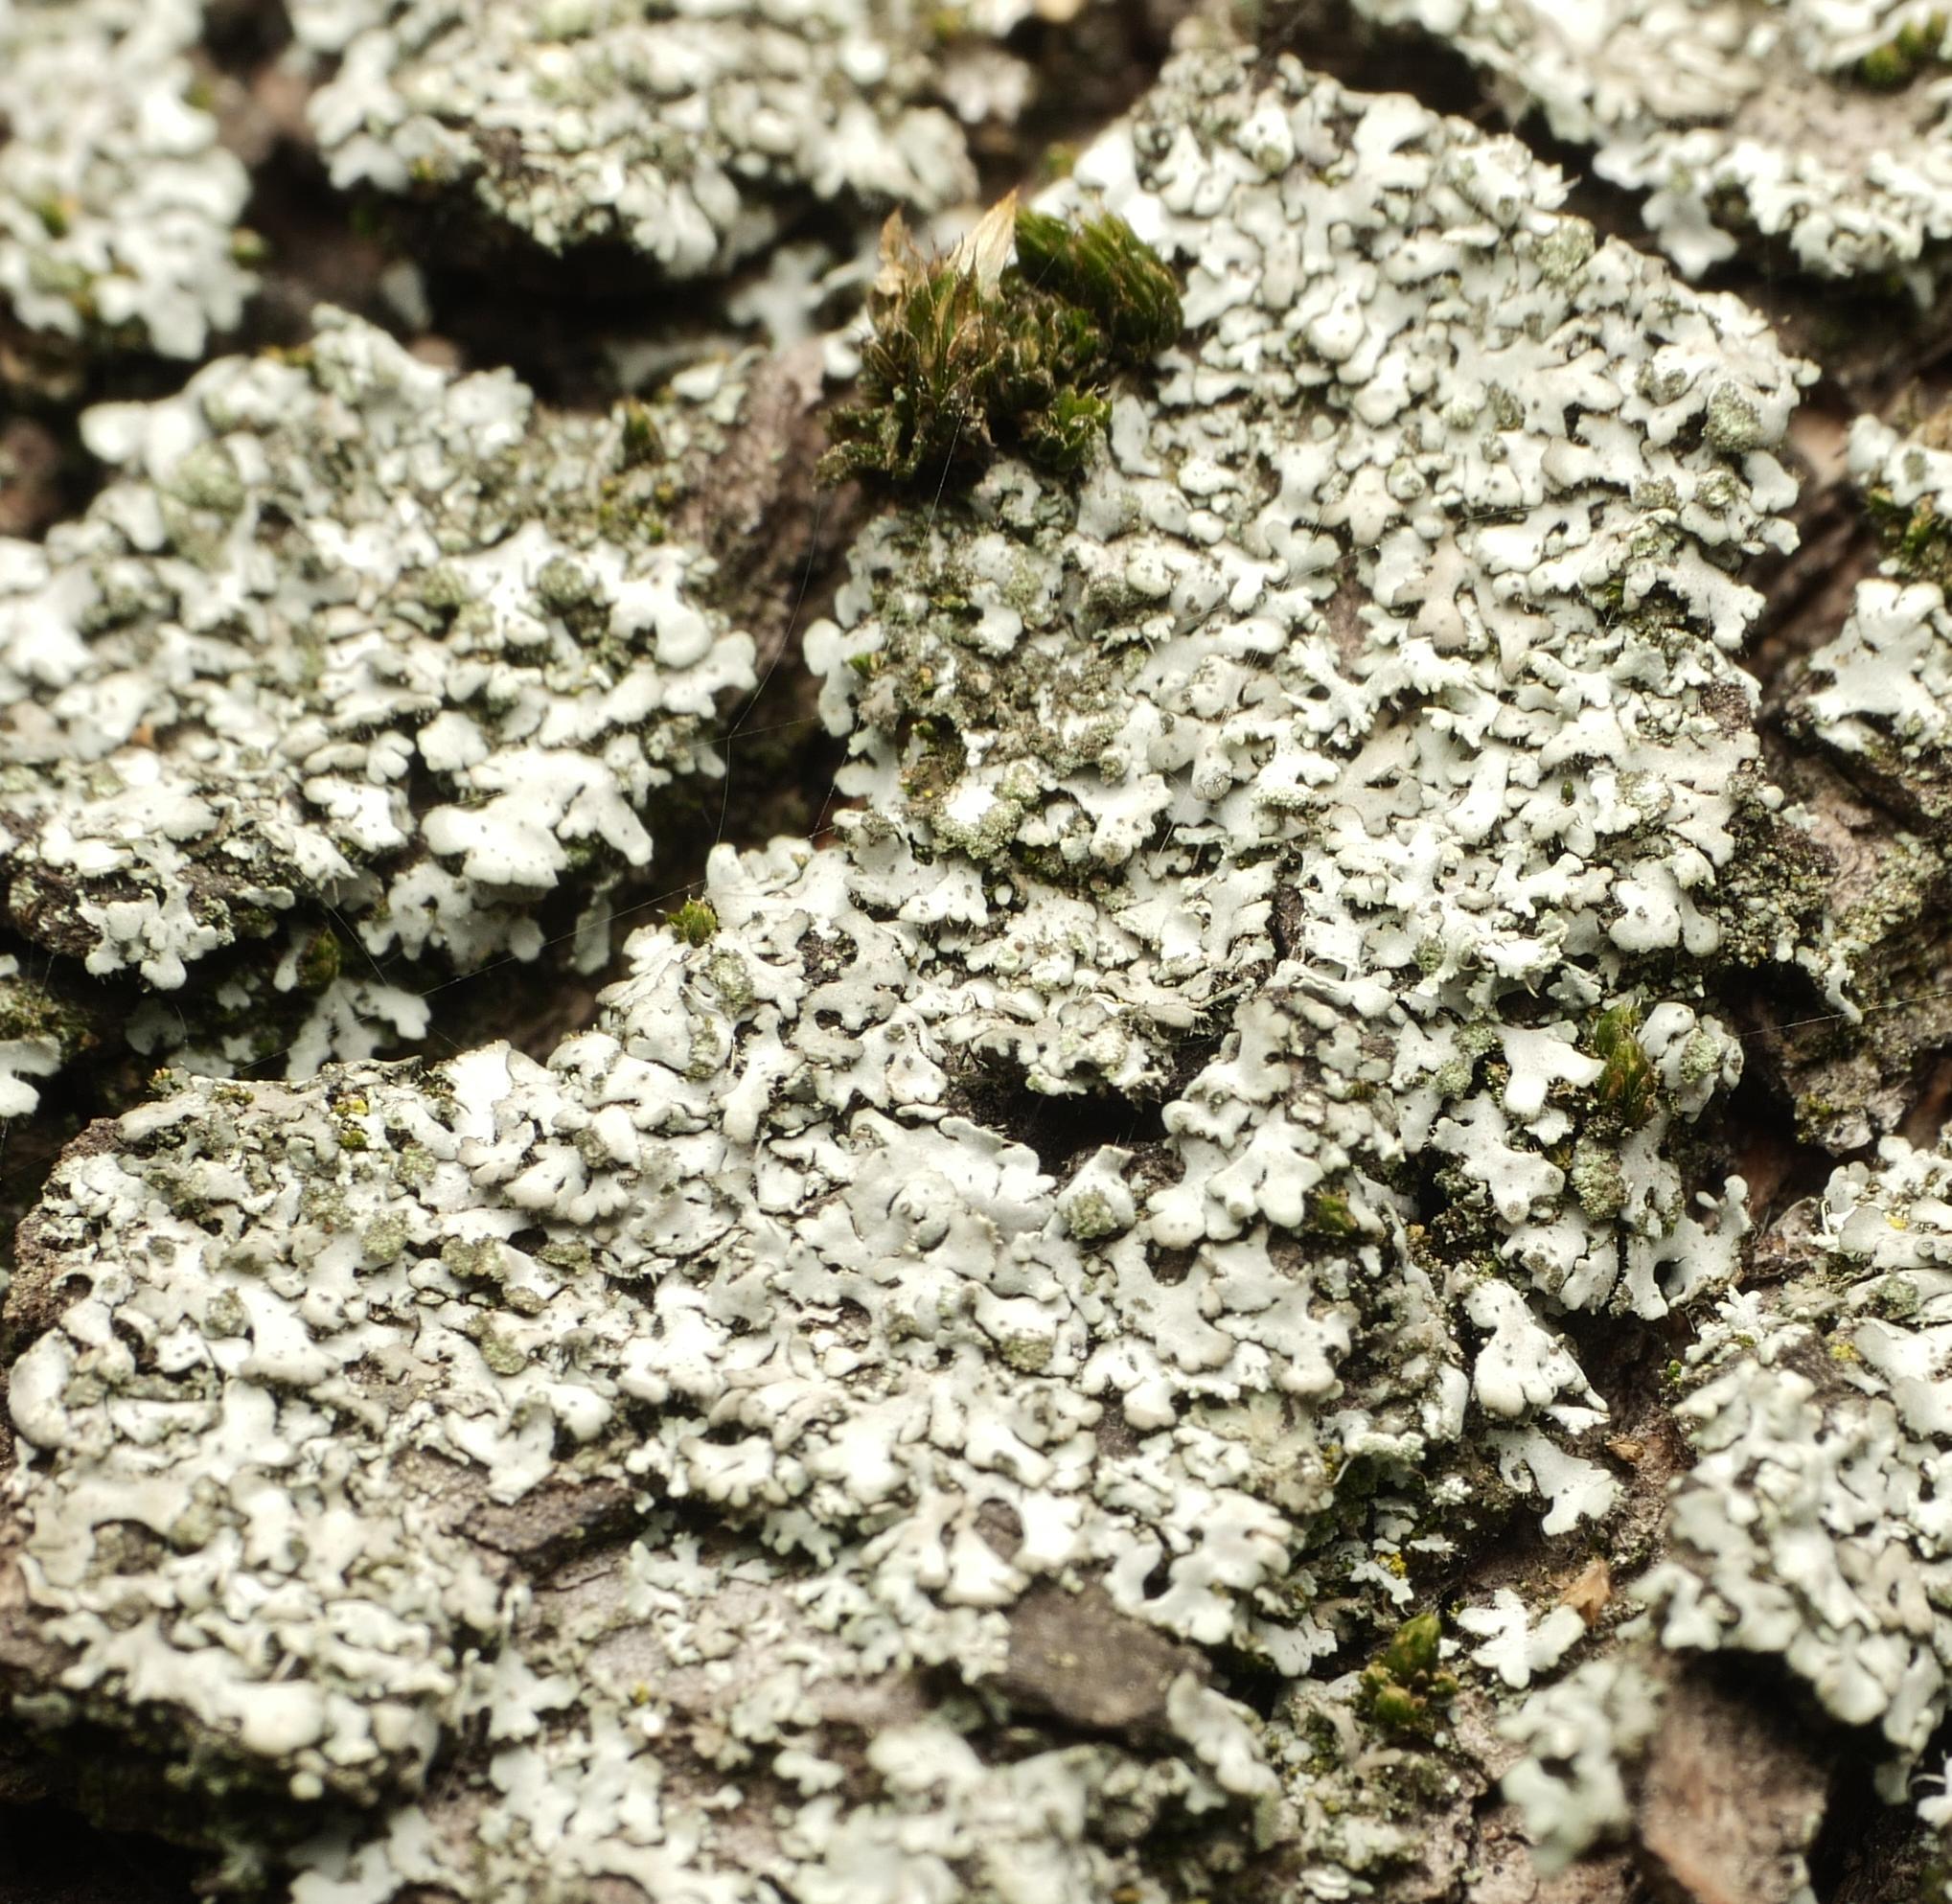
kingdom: Fungi
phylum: Ascomycota
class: Lecanoromycetes
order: Caliciales
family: Physciaceae
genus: Phaeophyscia
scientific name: Phaeophyscia orbicularis
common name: Mealy shadow lichen
